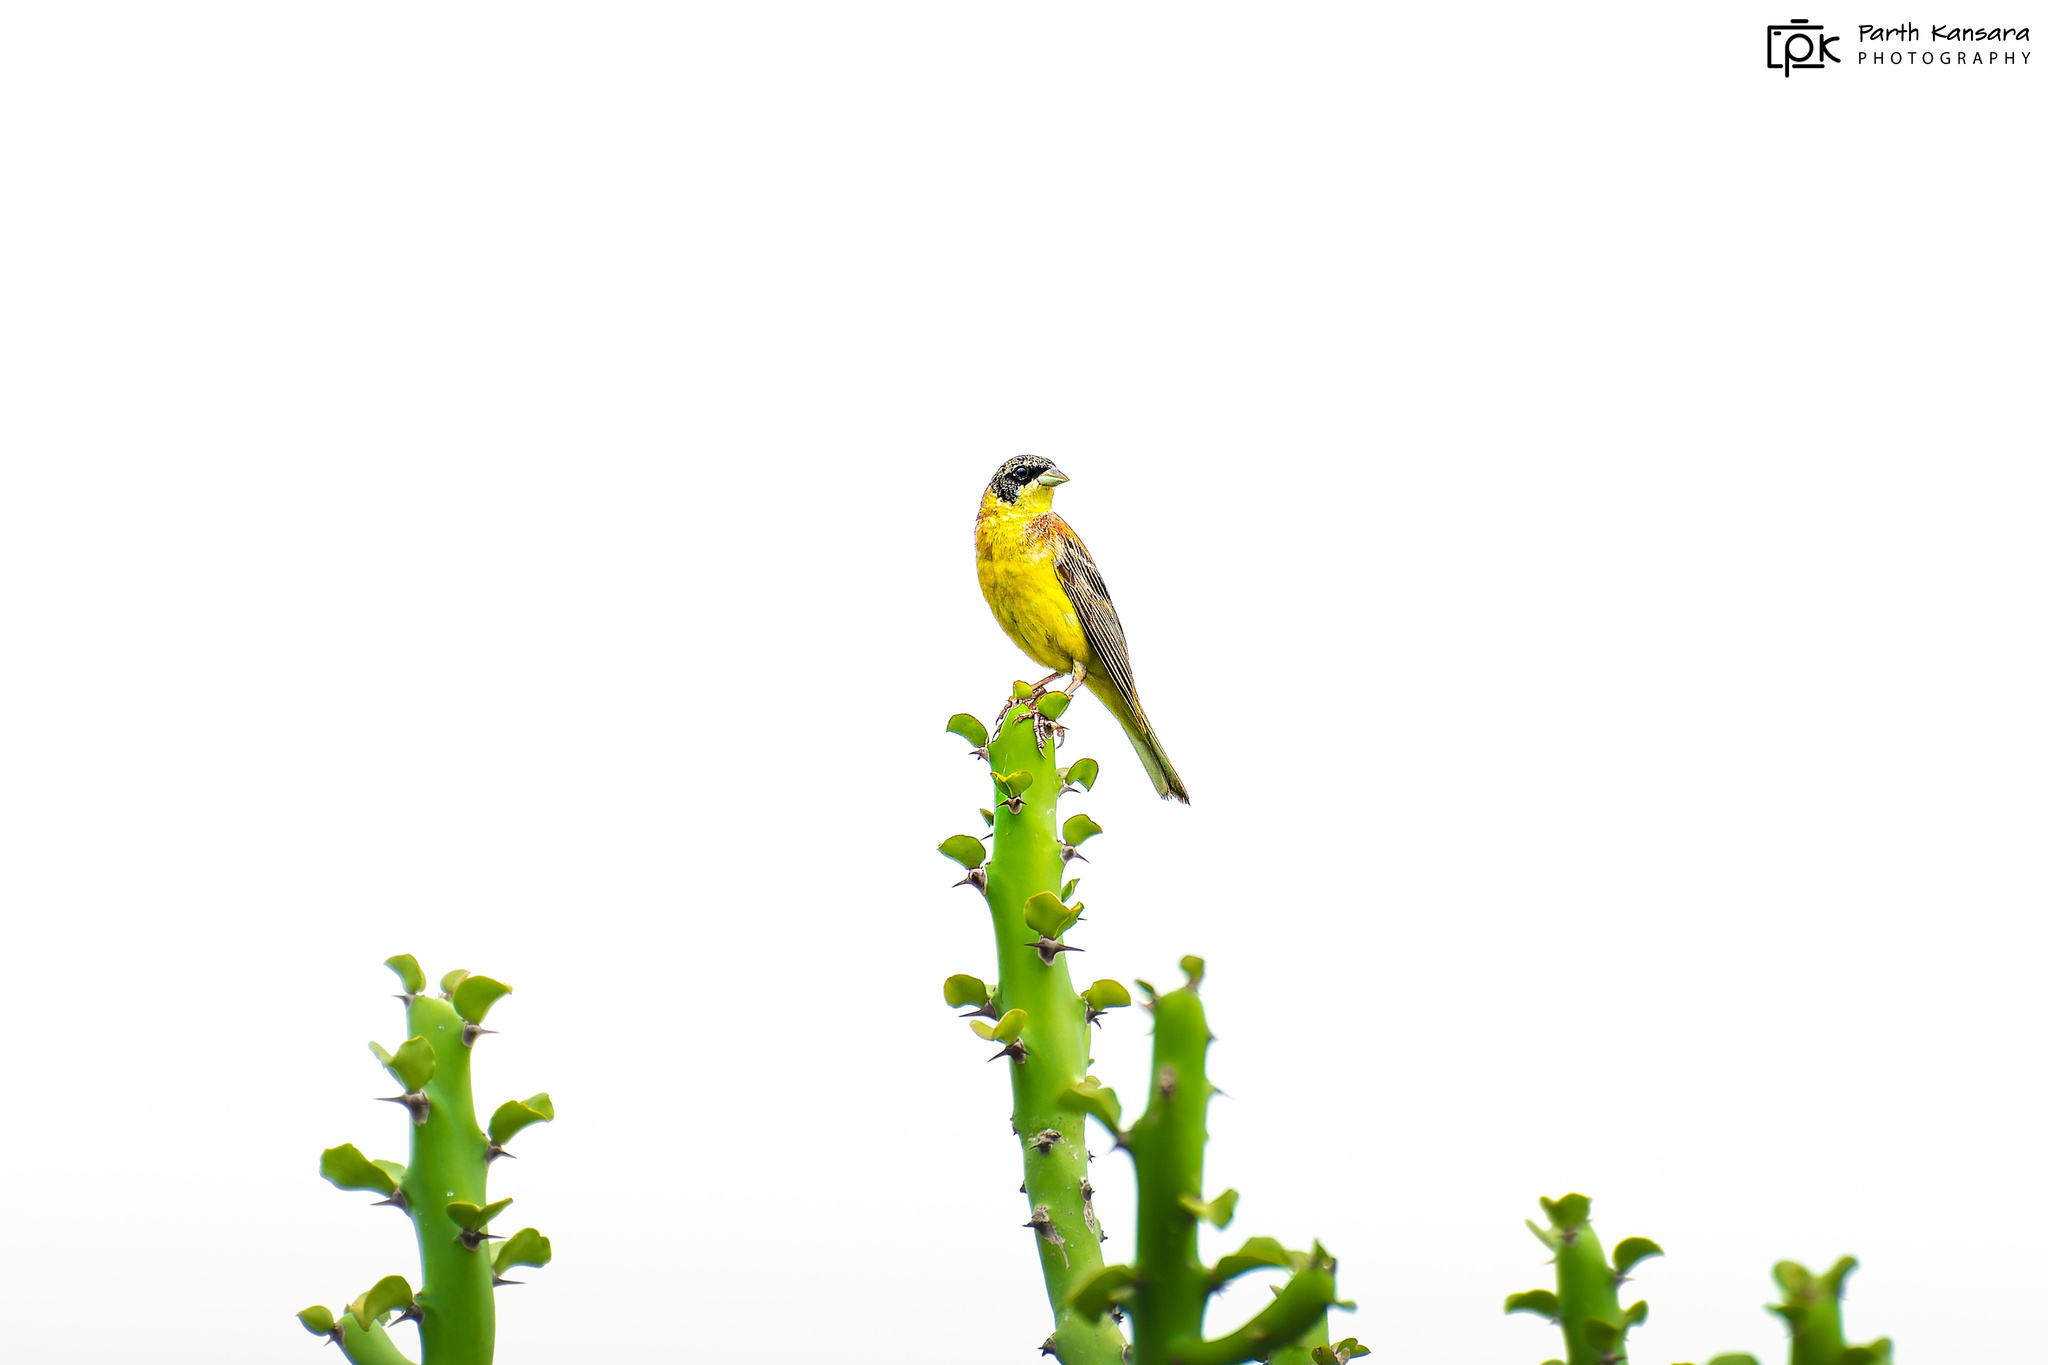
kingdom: Animalia
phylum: Chordata
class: Aves
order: Passeriformes
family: Emberizidae
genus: Emberiza
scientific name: Emberiza melanocephala
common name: Black-headed bunting
